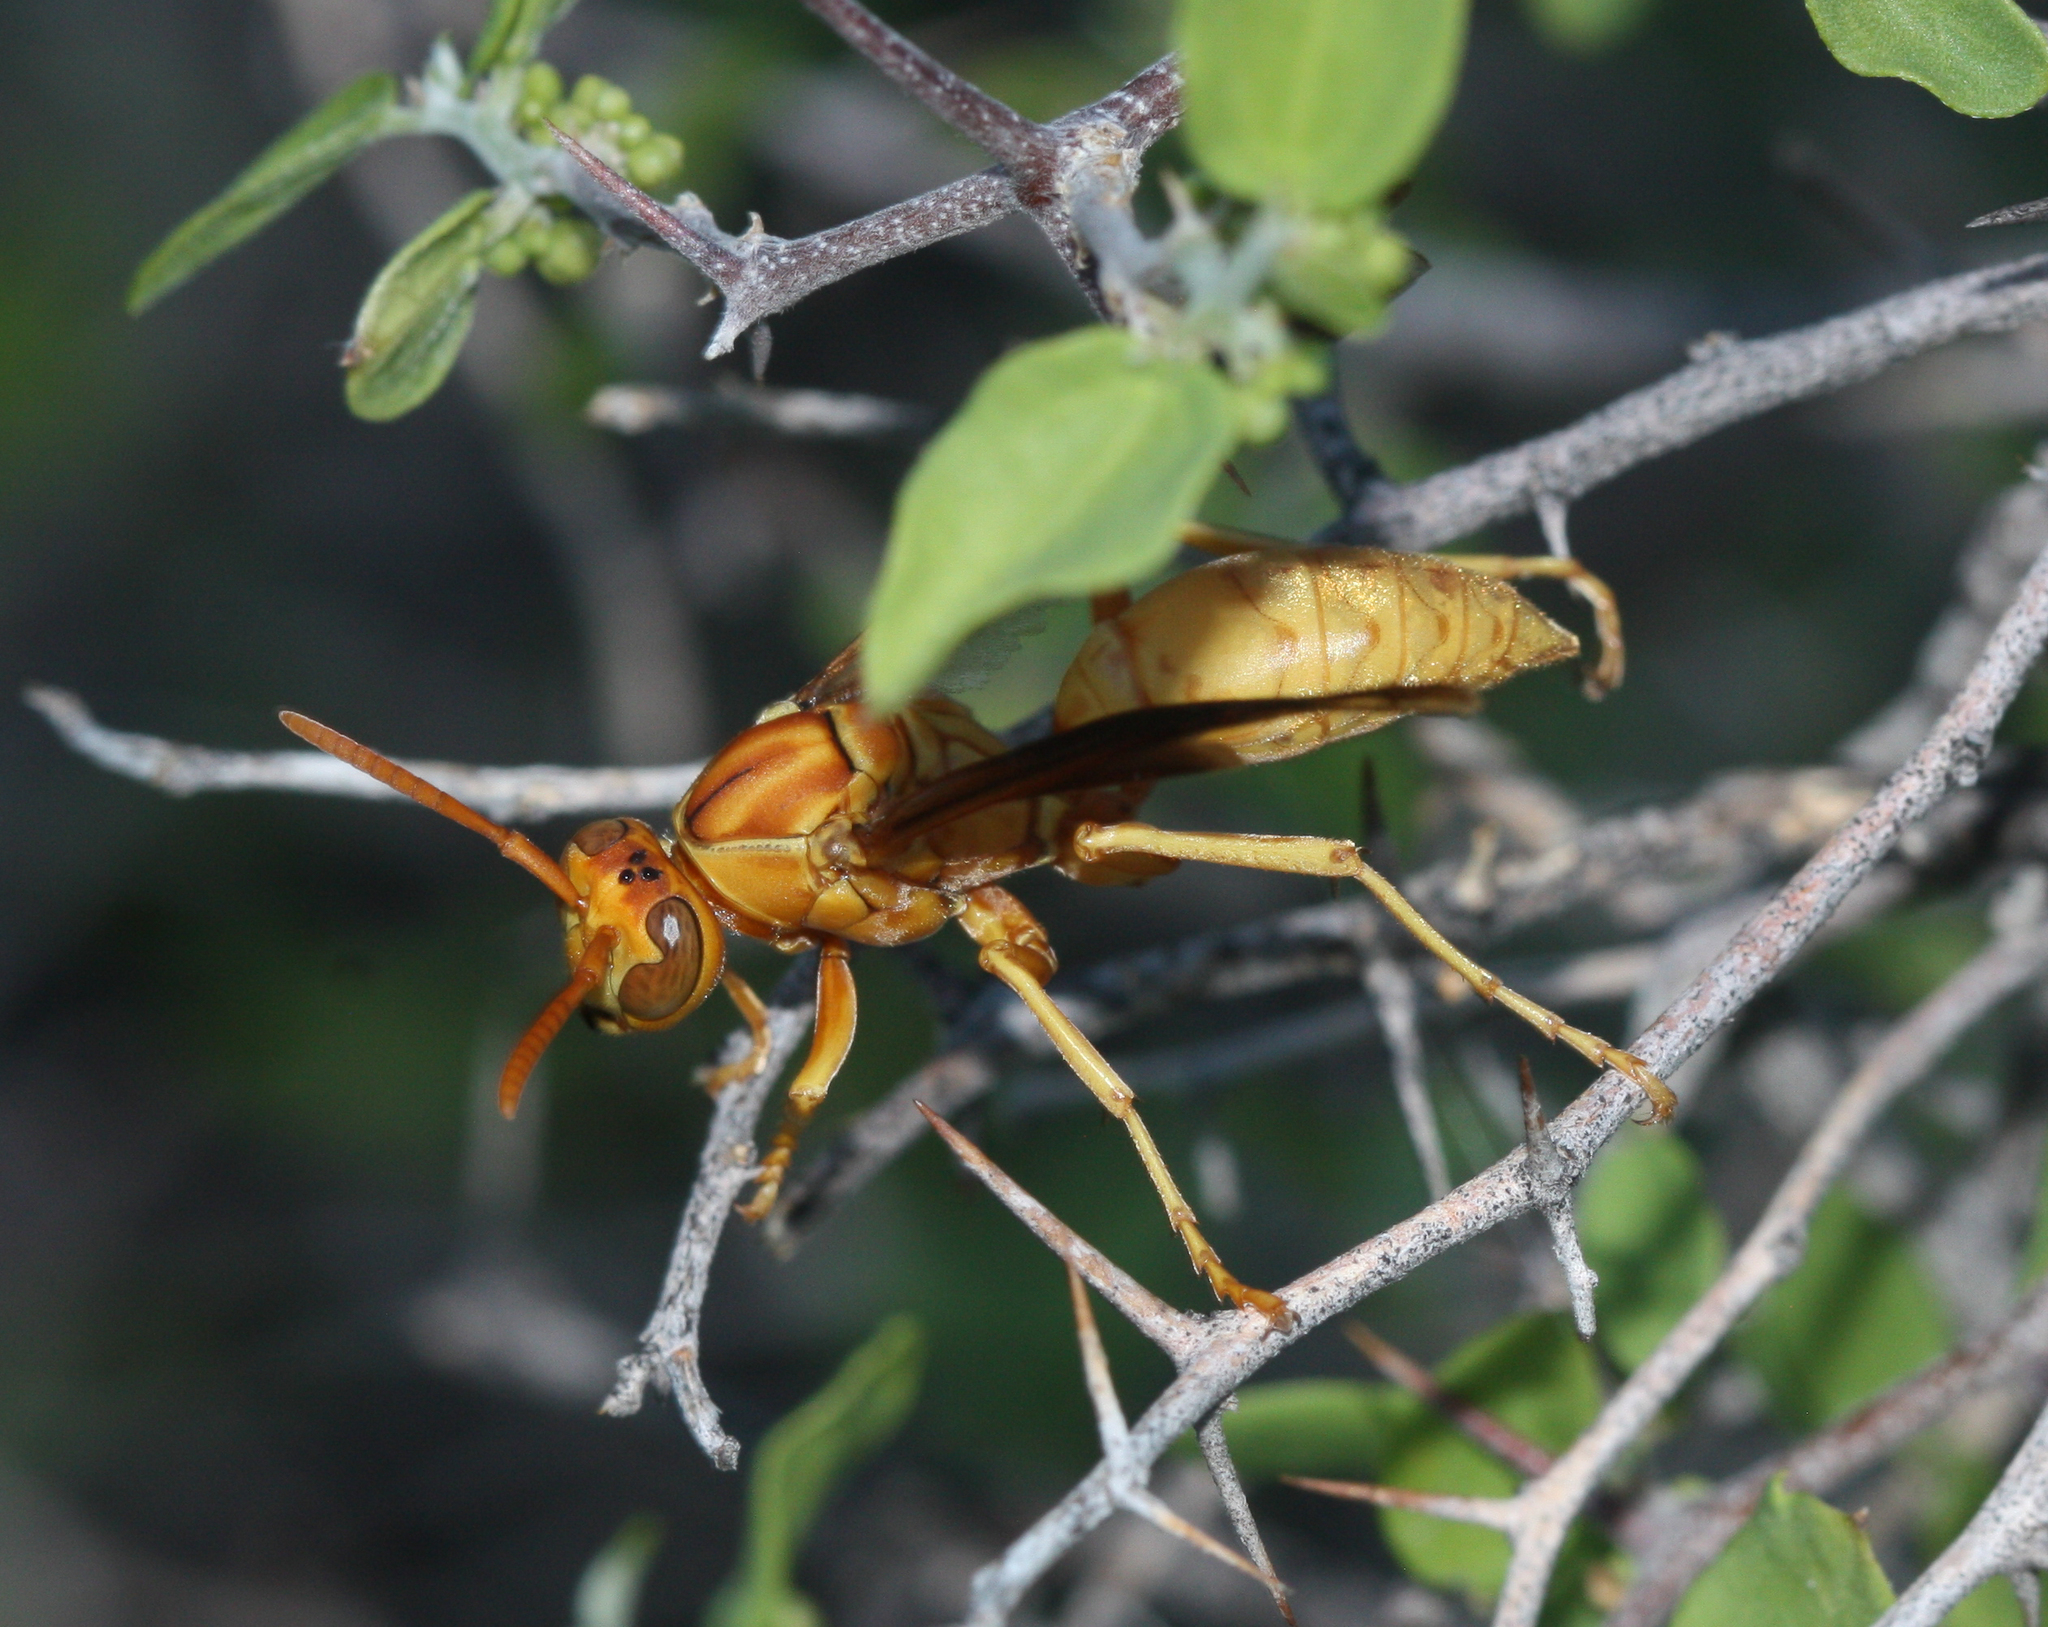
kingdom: Animalia
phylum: Arthropoda
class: Insecta
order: Hymenoptera
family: Eumenidae
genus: Polistes
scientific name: Polistes flavus
